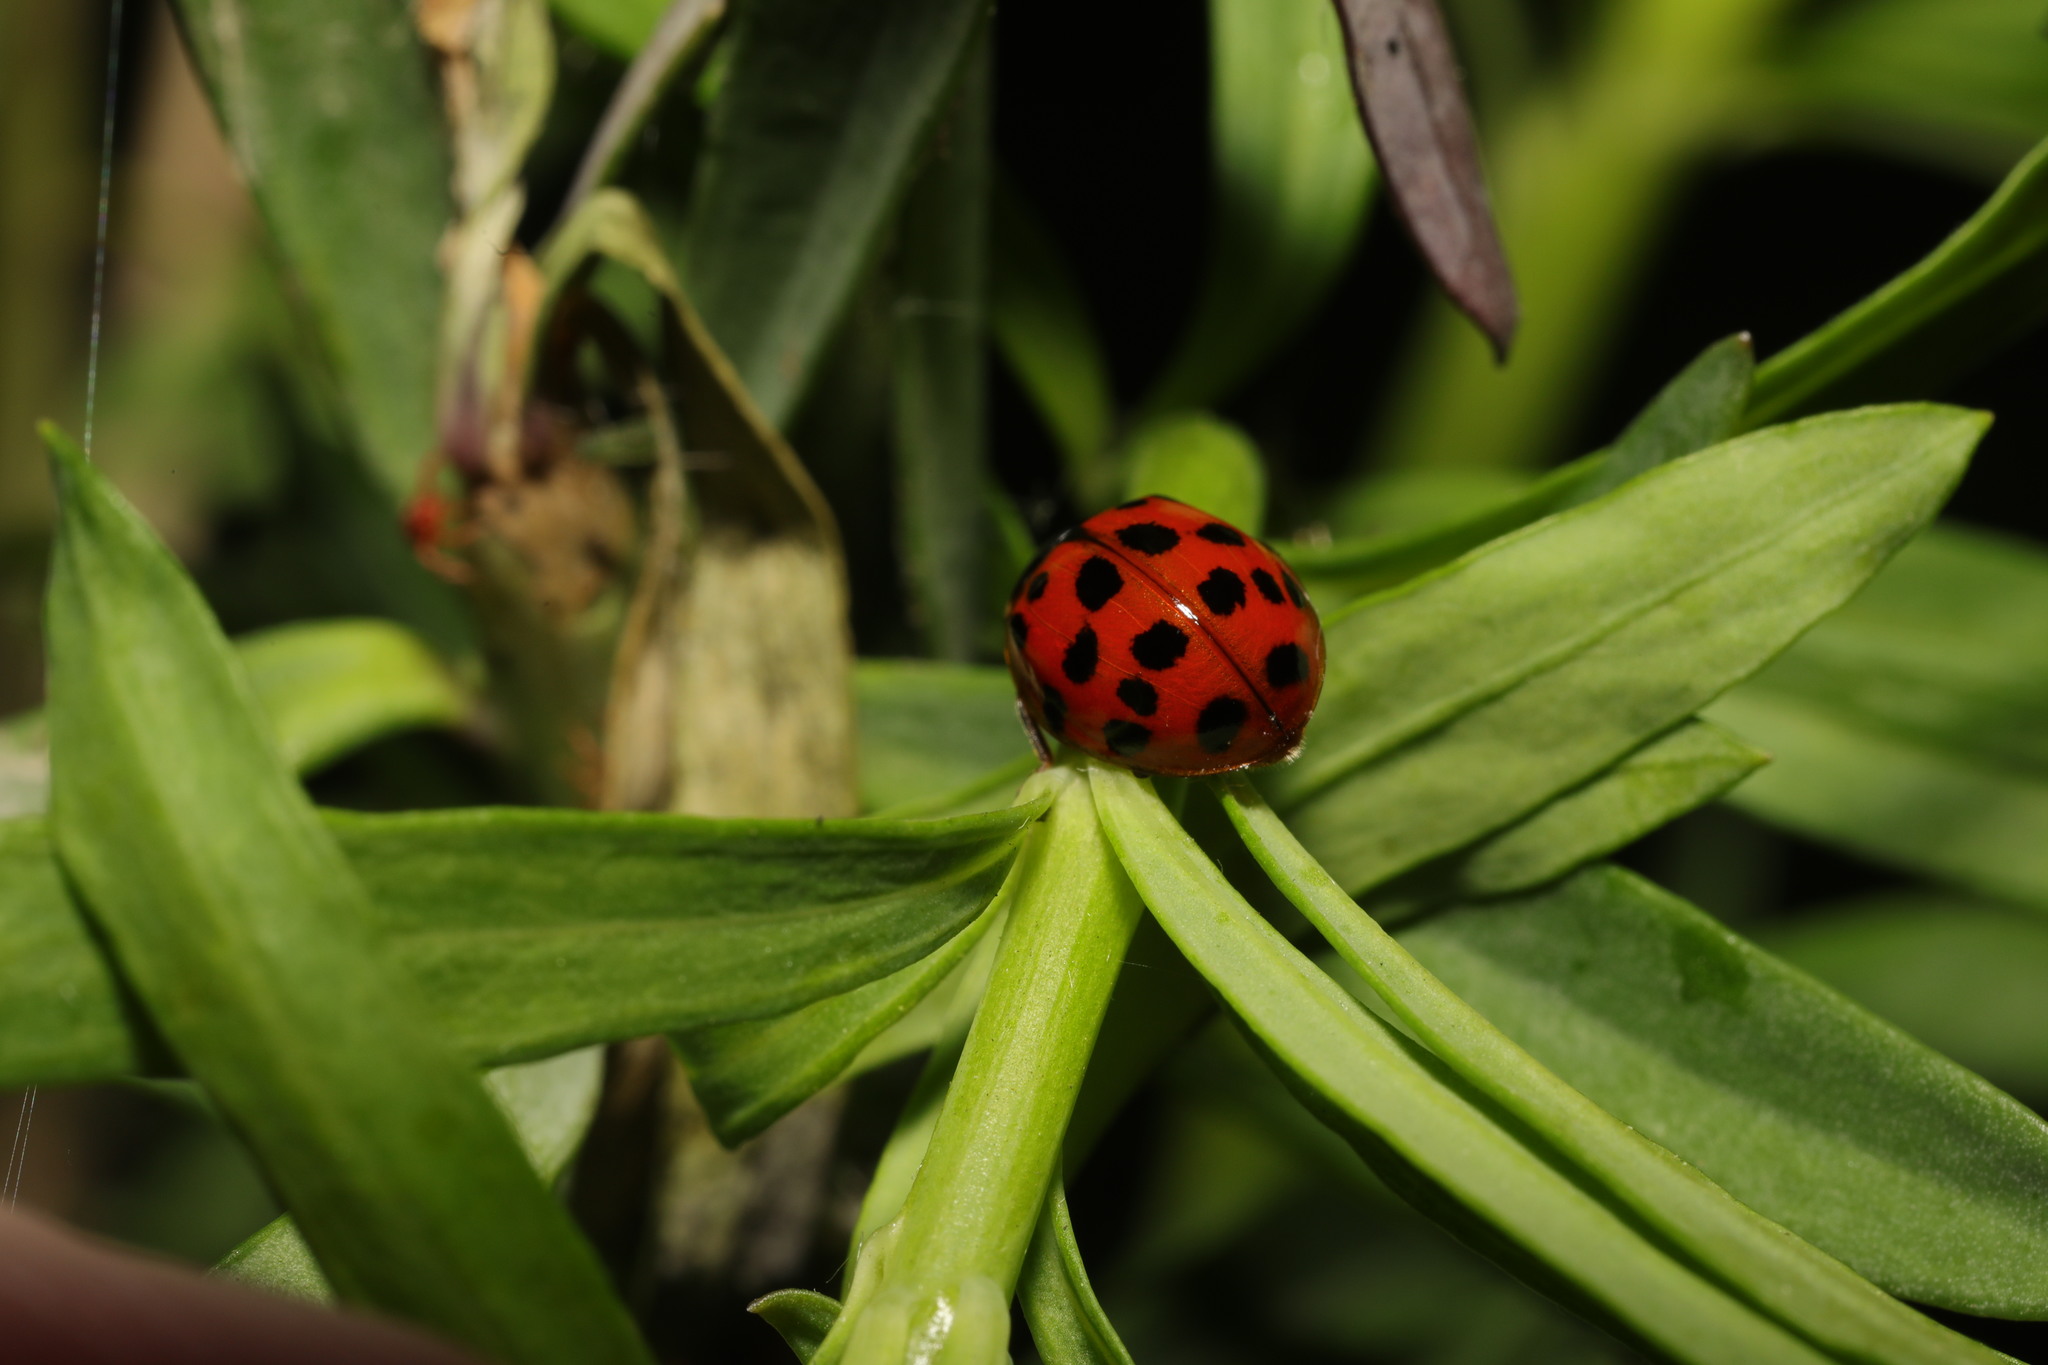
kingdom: Animalia
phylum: Arthropoda
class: Insecta
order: Coleoptera
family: Coccinellidae
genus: Harmonia
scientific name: Harmonia axyridis
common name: Harlequin ladybird
